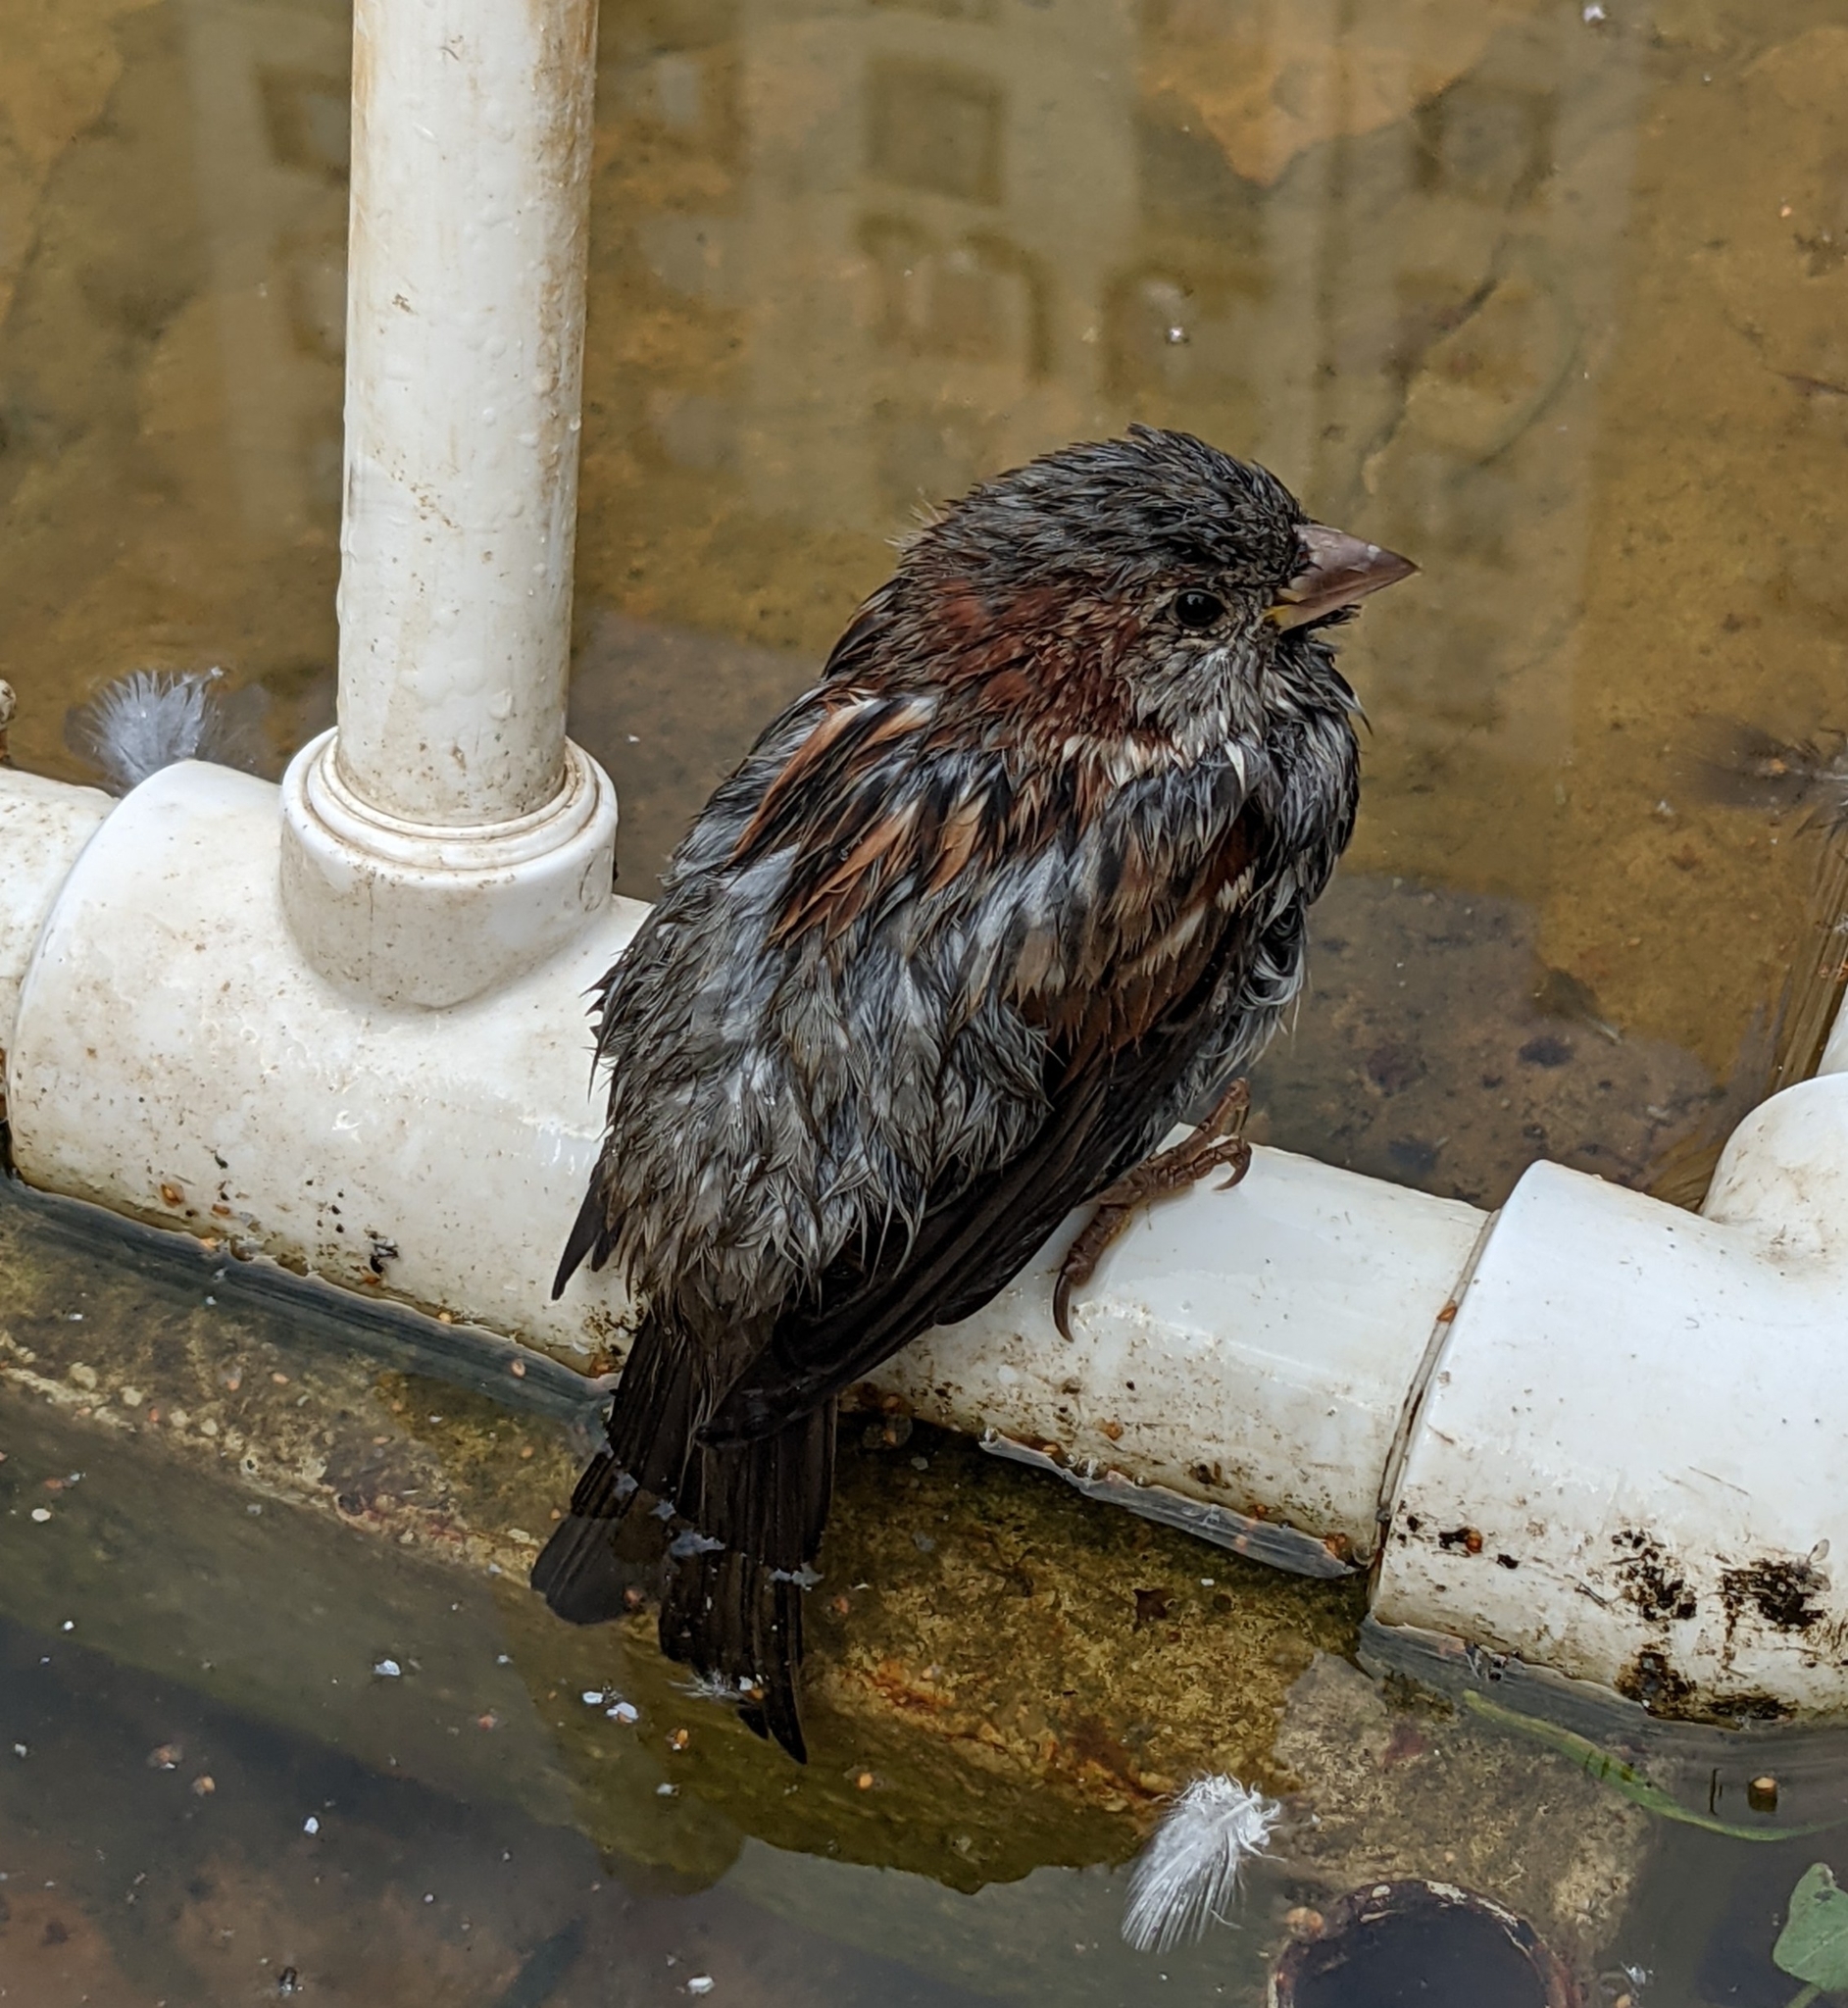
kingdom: Animalia
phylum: Chordata
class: Aves
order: Passeriformes
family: Passeridae
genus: Passer
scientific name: Passer domesticus
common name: House sparrow
